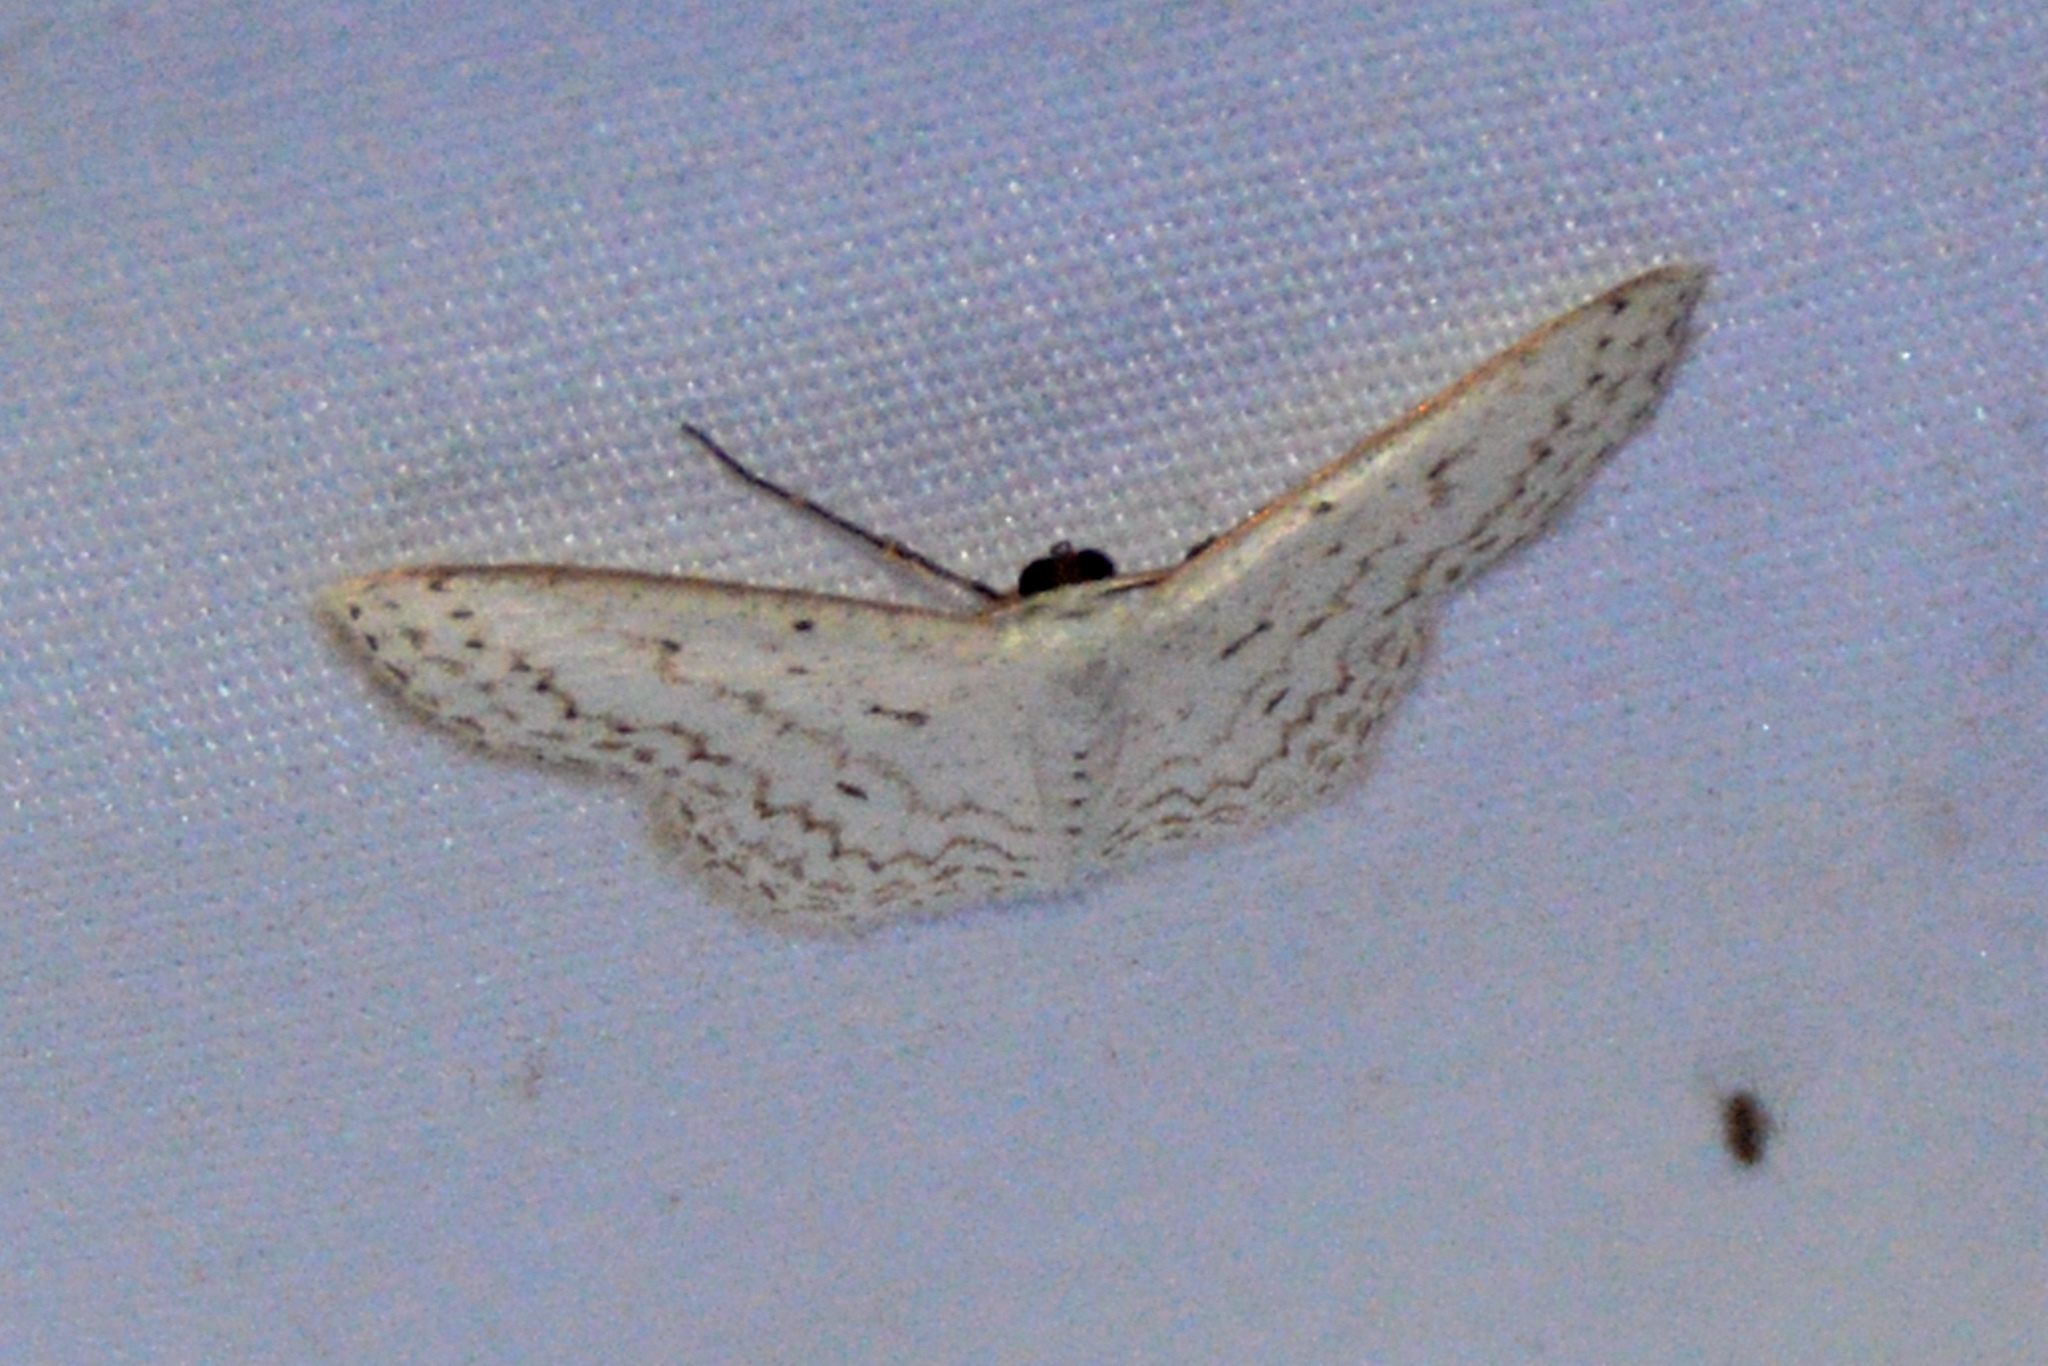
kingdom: Animalia
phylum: Arthropoda
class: Insecta
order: Lepidoptera
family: Geometridae
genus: Idaea
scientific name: Idaea tacturata
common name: Dot-lined wave
